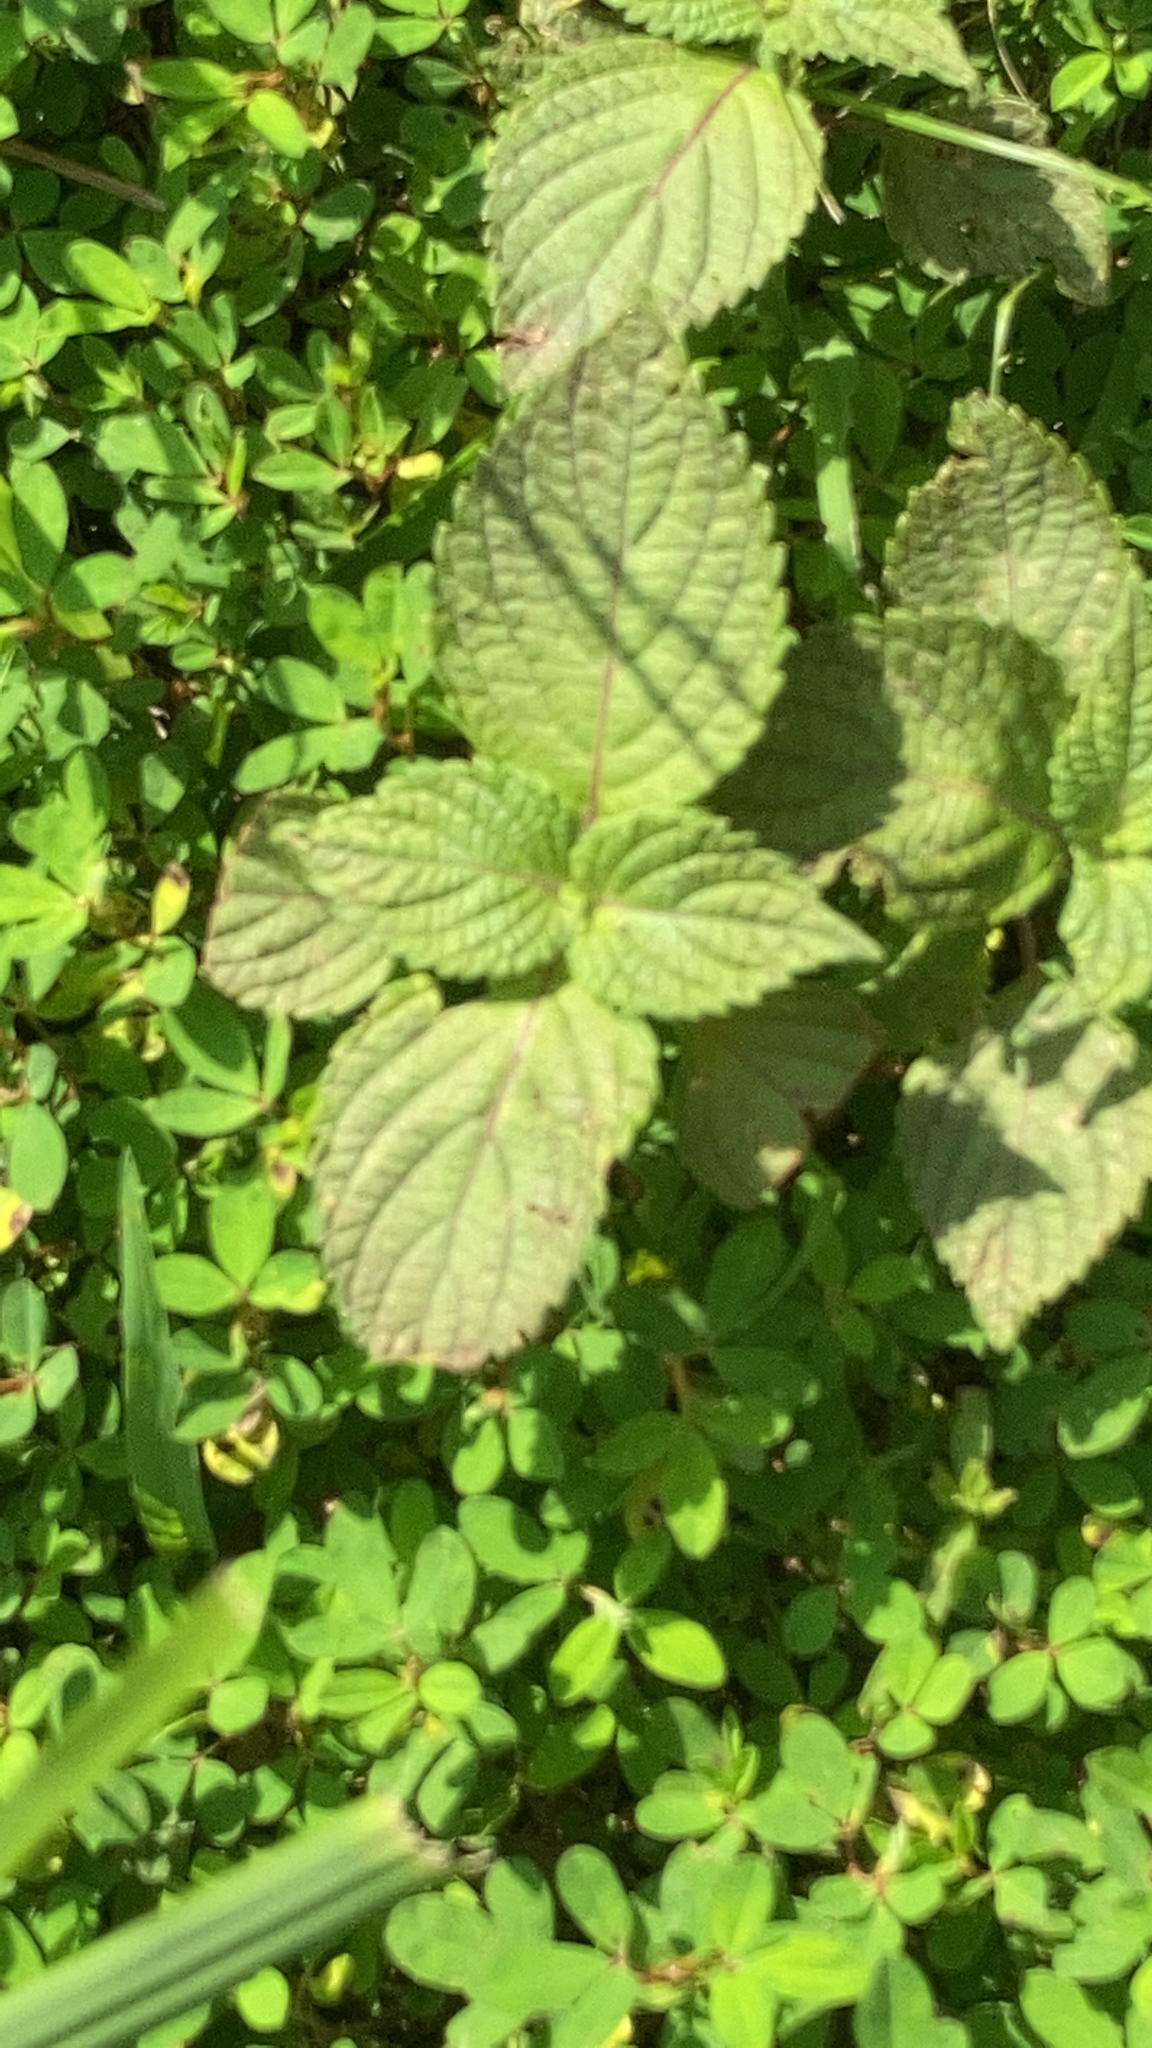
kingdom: Plantae
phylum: Tracheophyta
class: Magnoliopsida
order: Lamiales
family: Lamiaceae
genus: Perilla
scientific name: Perilla frutescens
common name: Perilla
